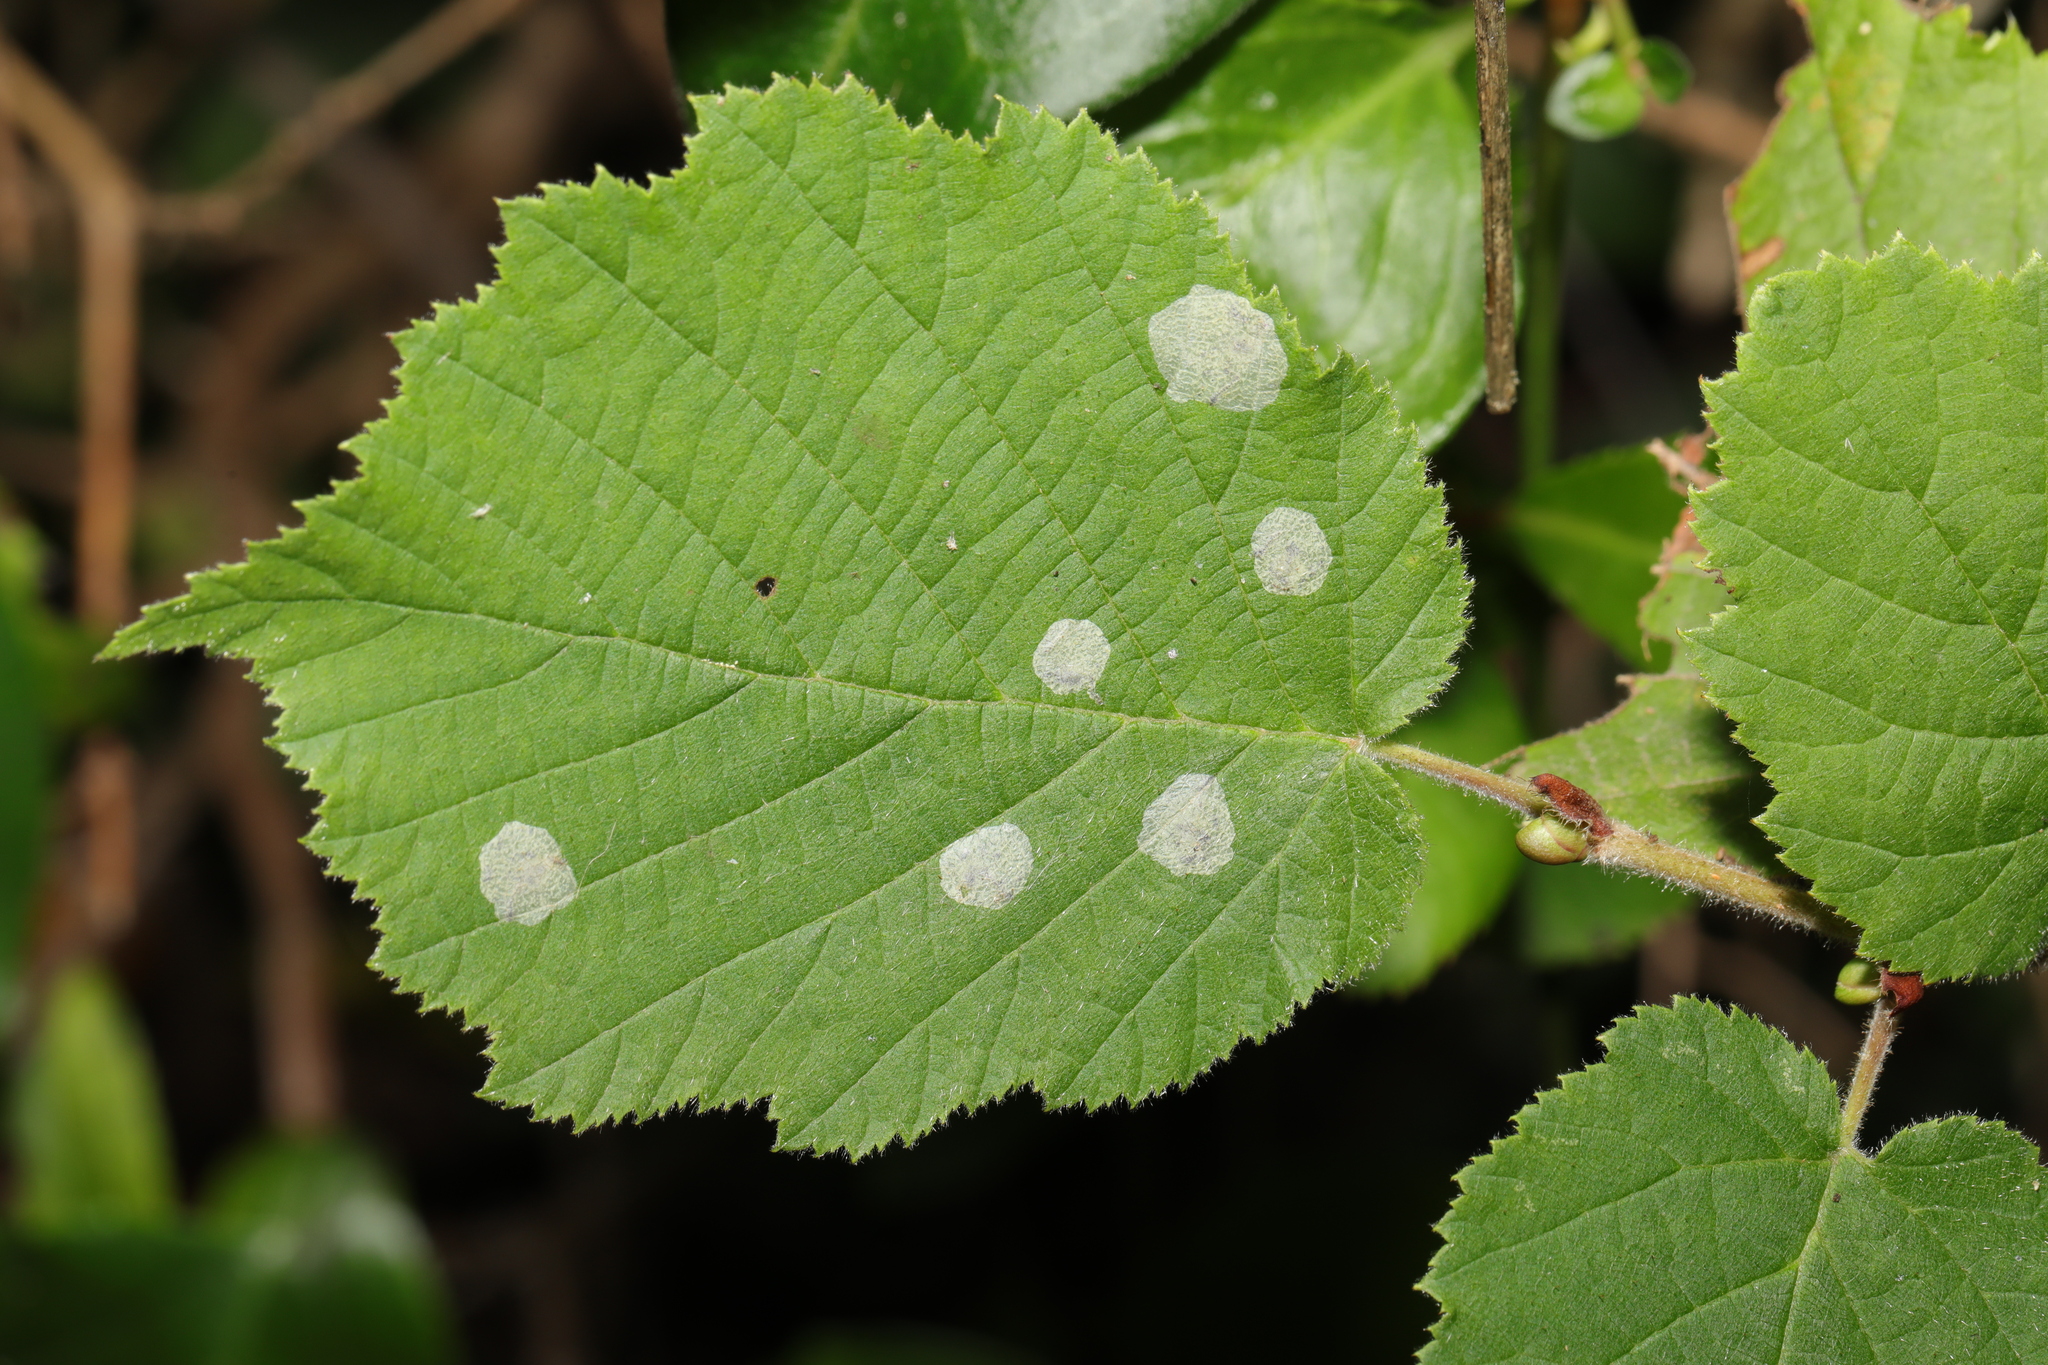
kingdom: Animalia
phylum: Arthropoda
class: Insecta
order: Lepidoptera
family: Gracillariidae
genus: Phyllonorycter
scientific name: Phyllonorycter coryli
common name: Nut-leaf blister moth
